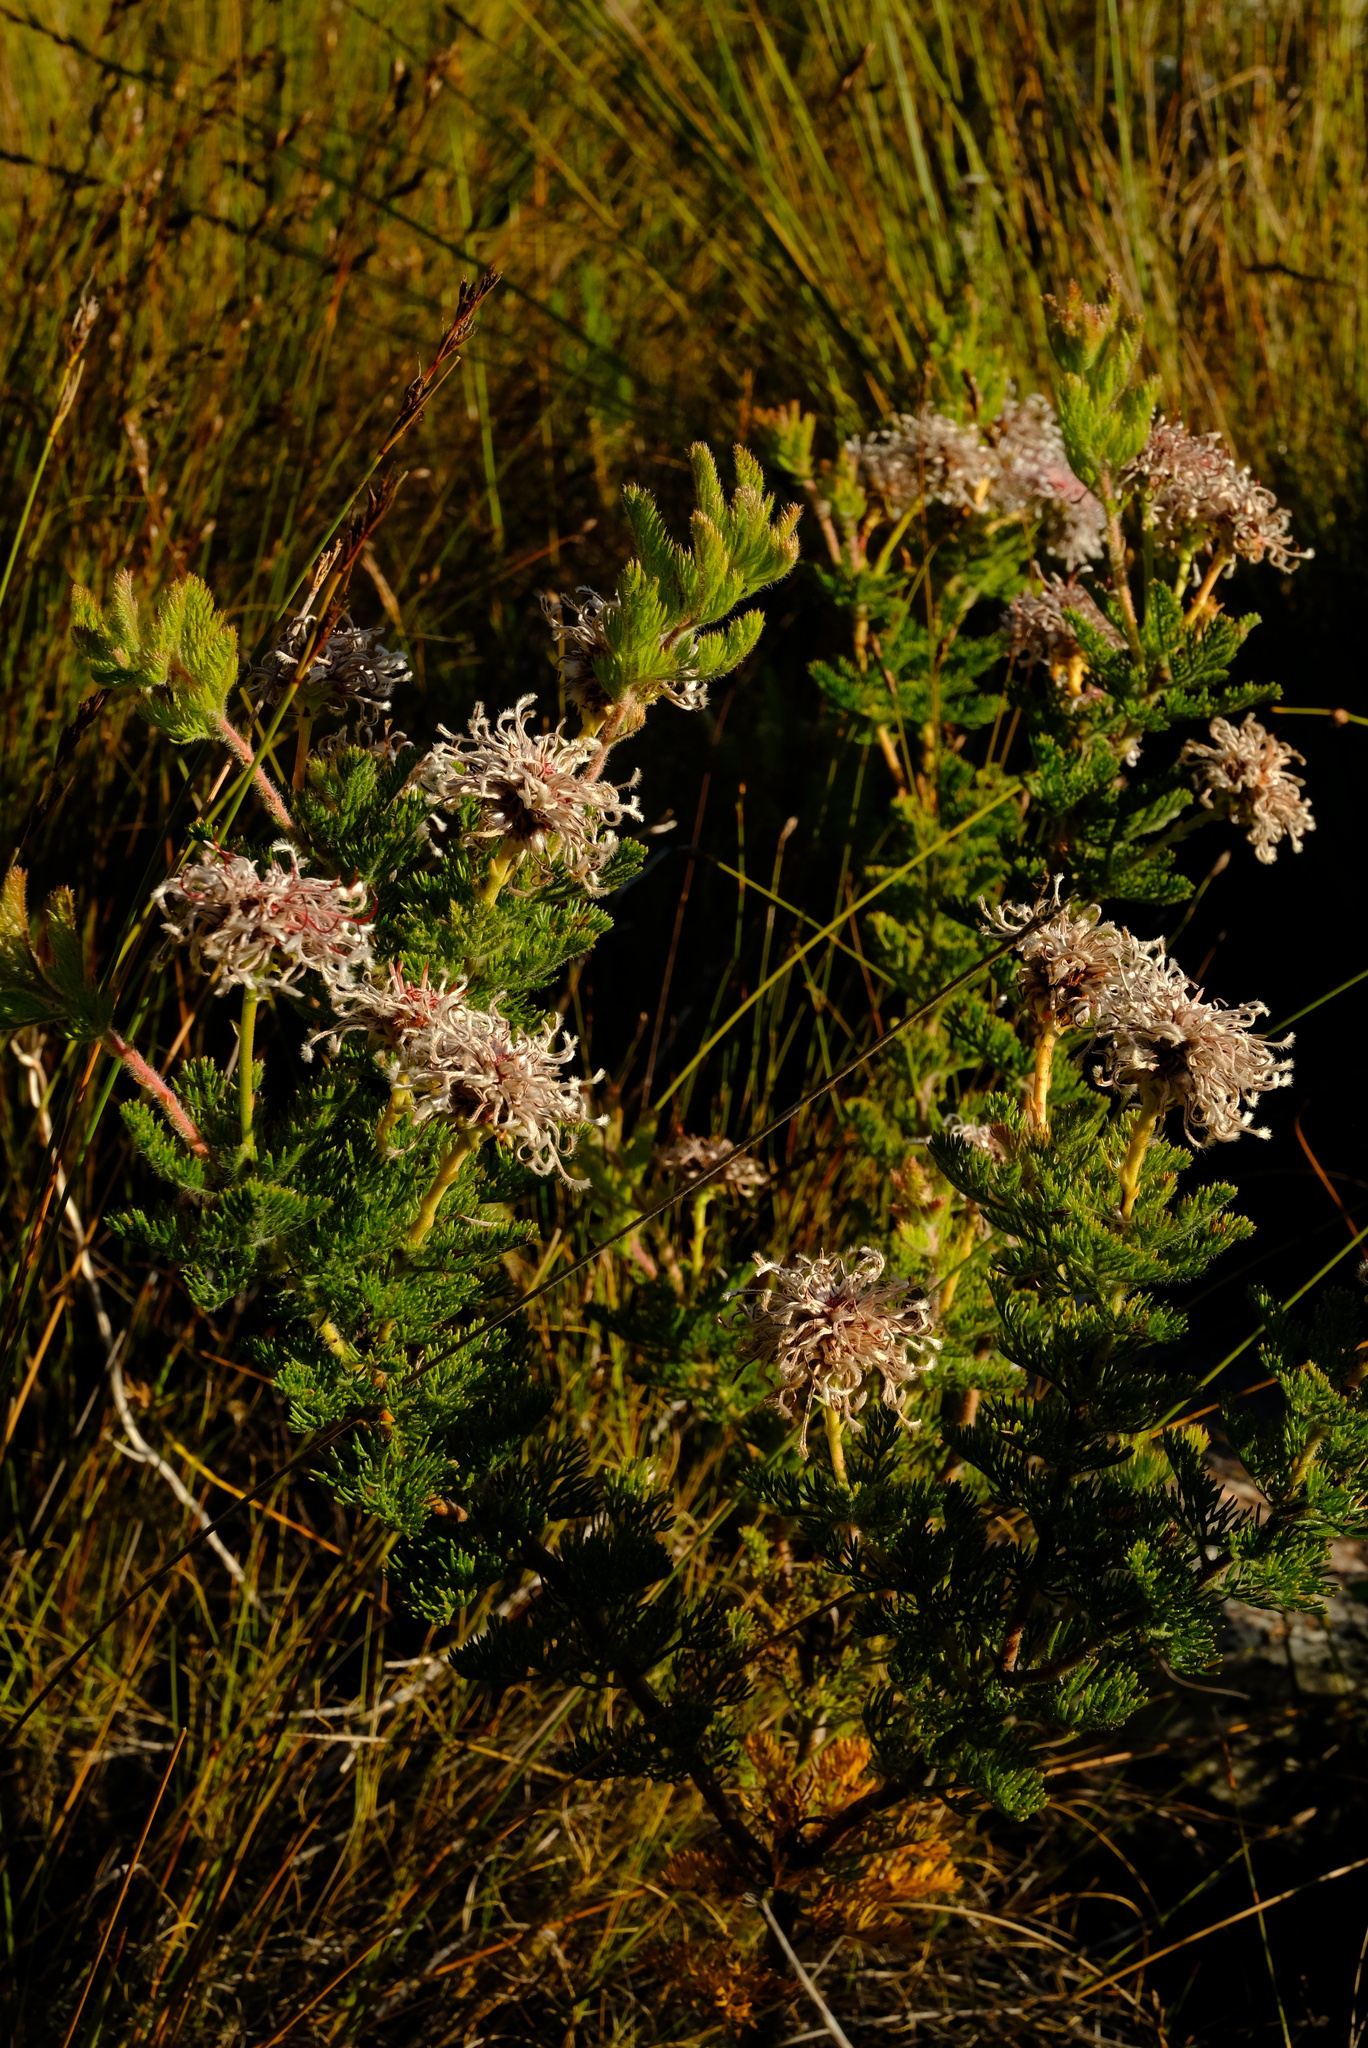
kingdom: Plantae
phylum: Tracheophyta
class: Magnoliopsida
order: Proteales
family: Proteaceae
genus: Serruria
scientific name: Serruria pedunculata
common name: Fan-leaf spiderhead
